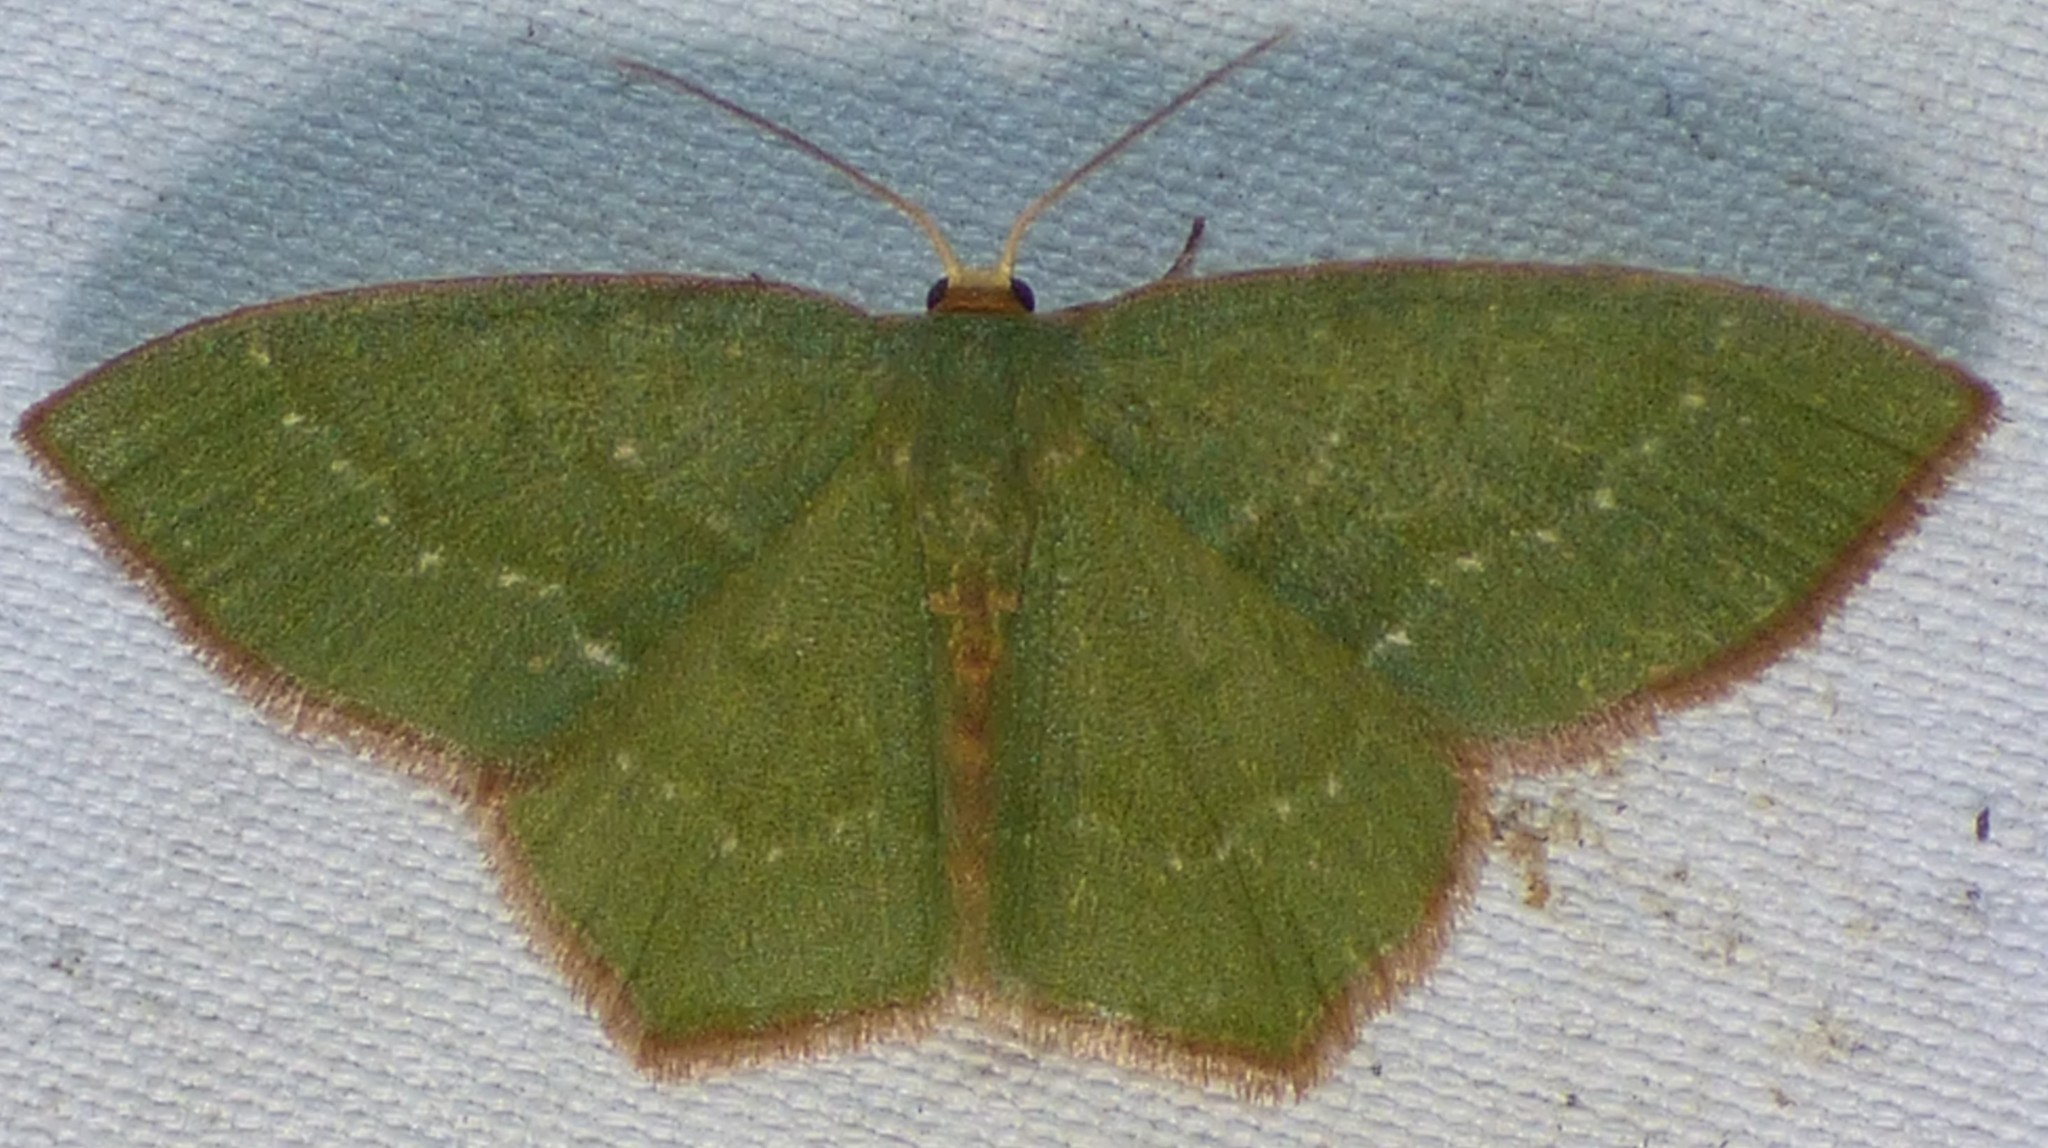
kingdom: Animalia
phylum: Arthropoda
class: Insecta
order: Lepidoptera
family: Geometridae
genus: Thalera
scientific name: Thalera pistasciaria
